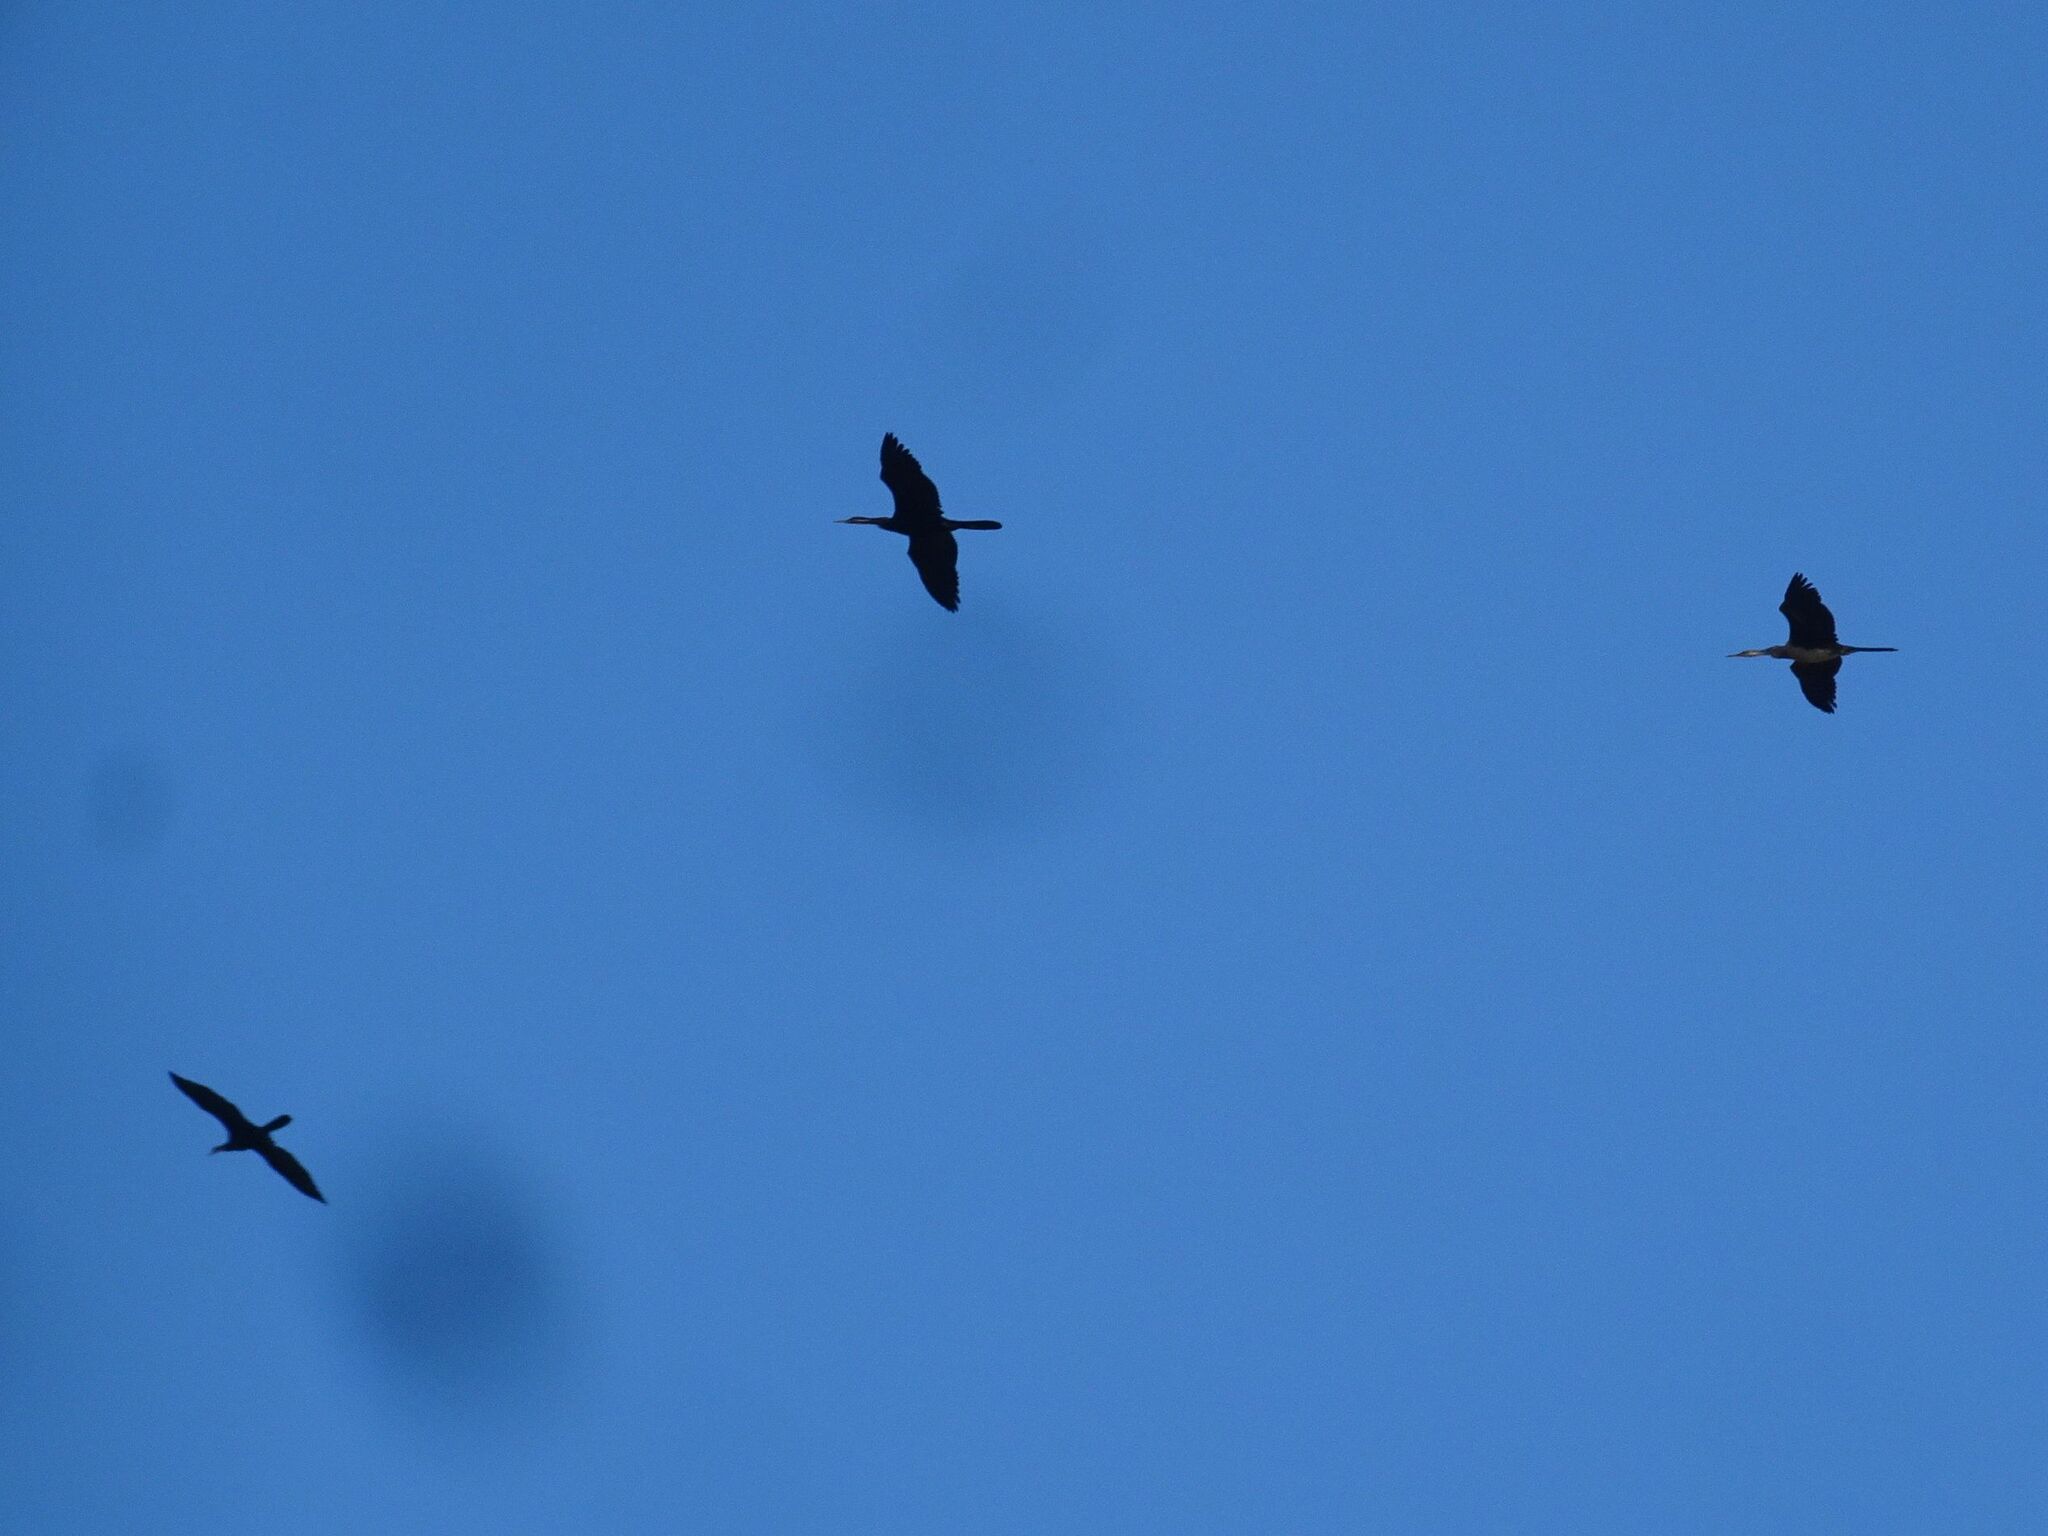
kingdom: Animalia
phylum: Chordata
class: Aves
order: Suliformes
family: Anhingidae
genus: Anhinga
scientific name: Anhinga rufa
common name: African darter
